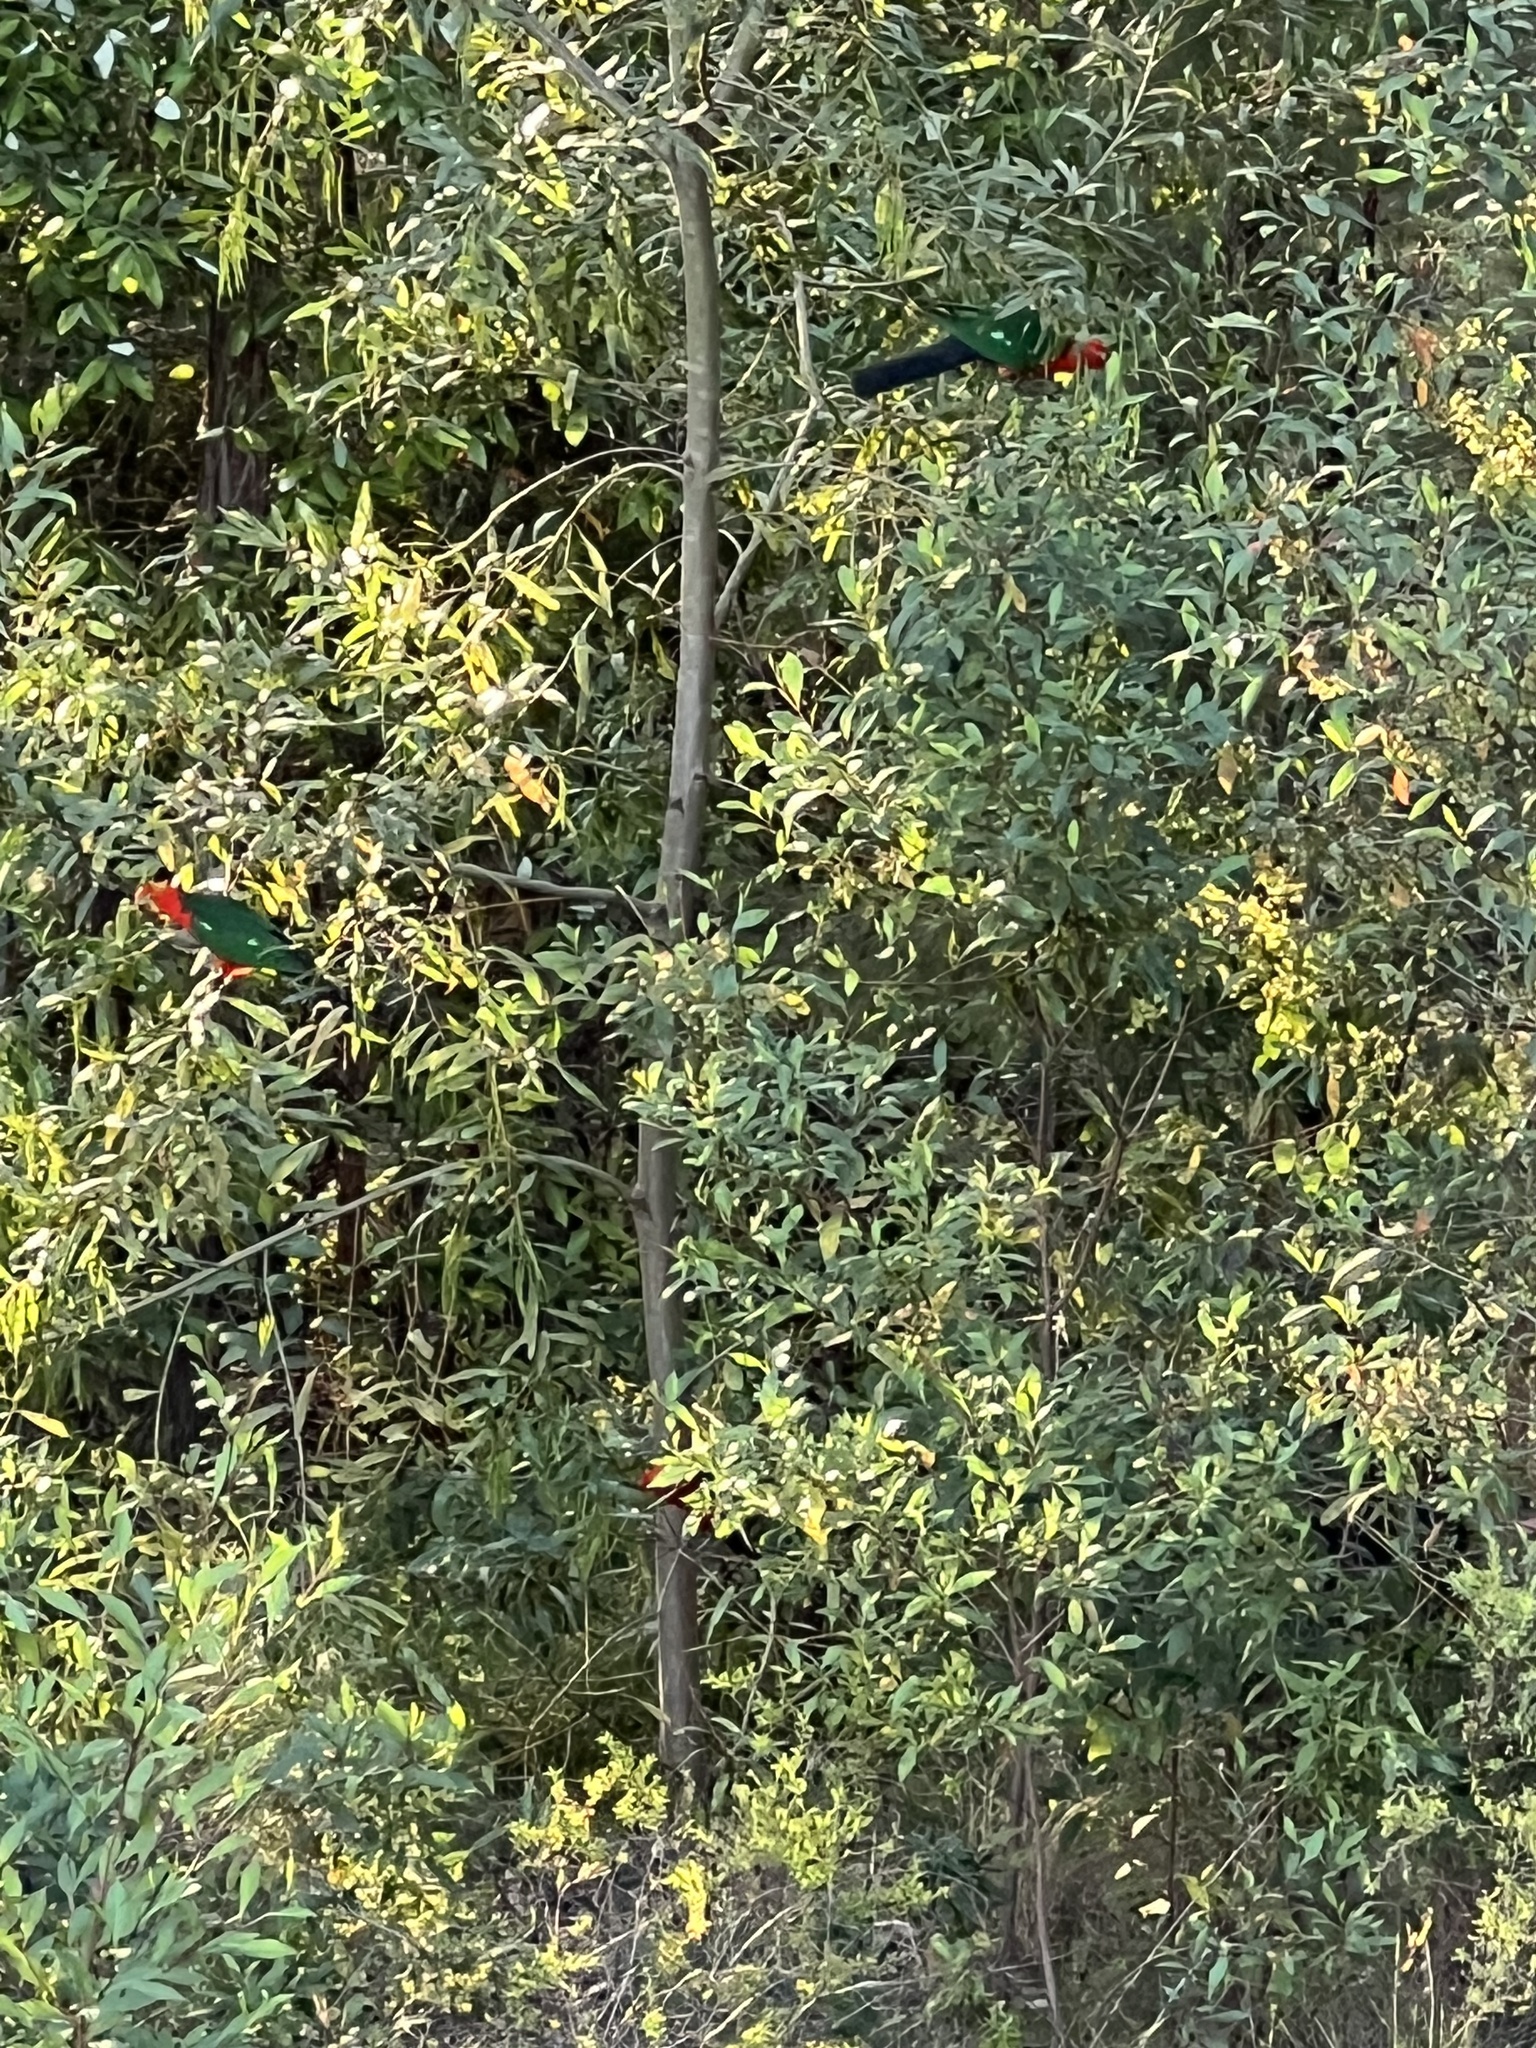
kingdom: Animalia
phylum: Chordata
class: Aves
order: Psittaciformes
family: Psittacidae
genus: Alisterus
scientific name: Alisterus scapularis
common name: Australian king parrot
